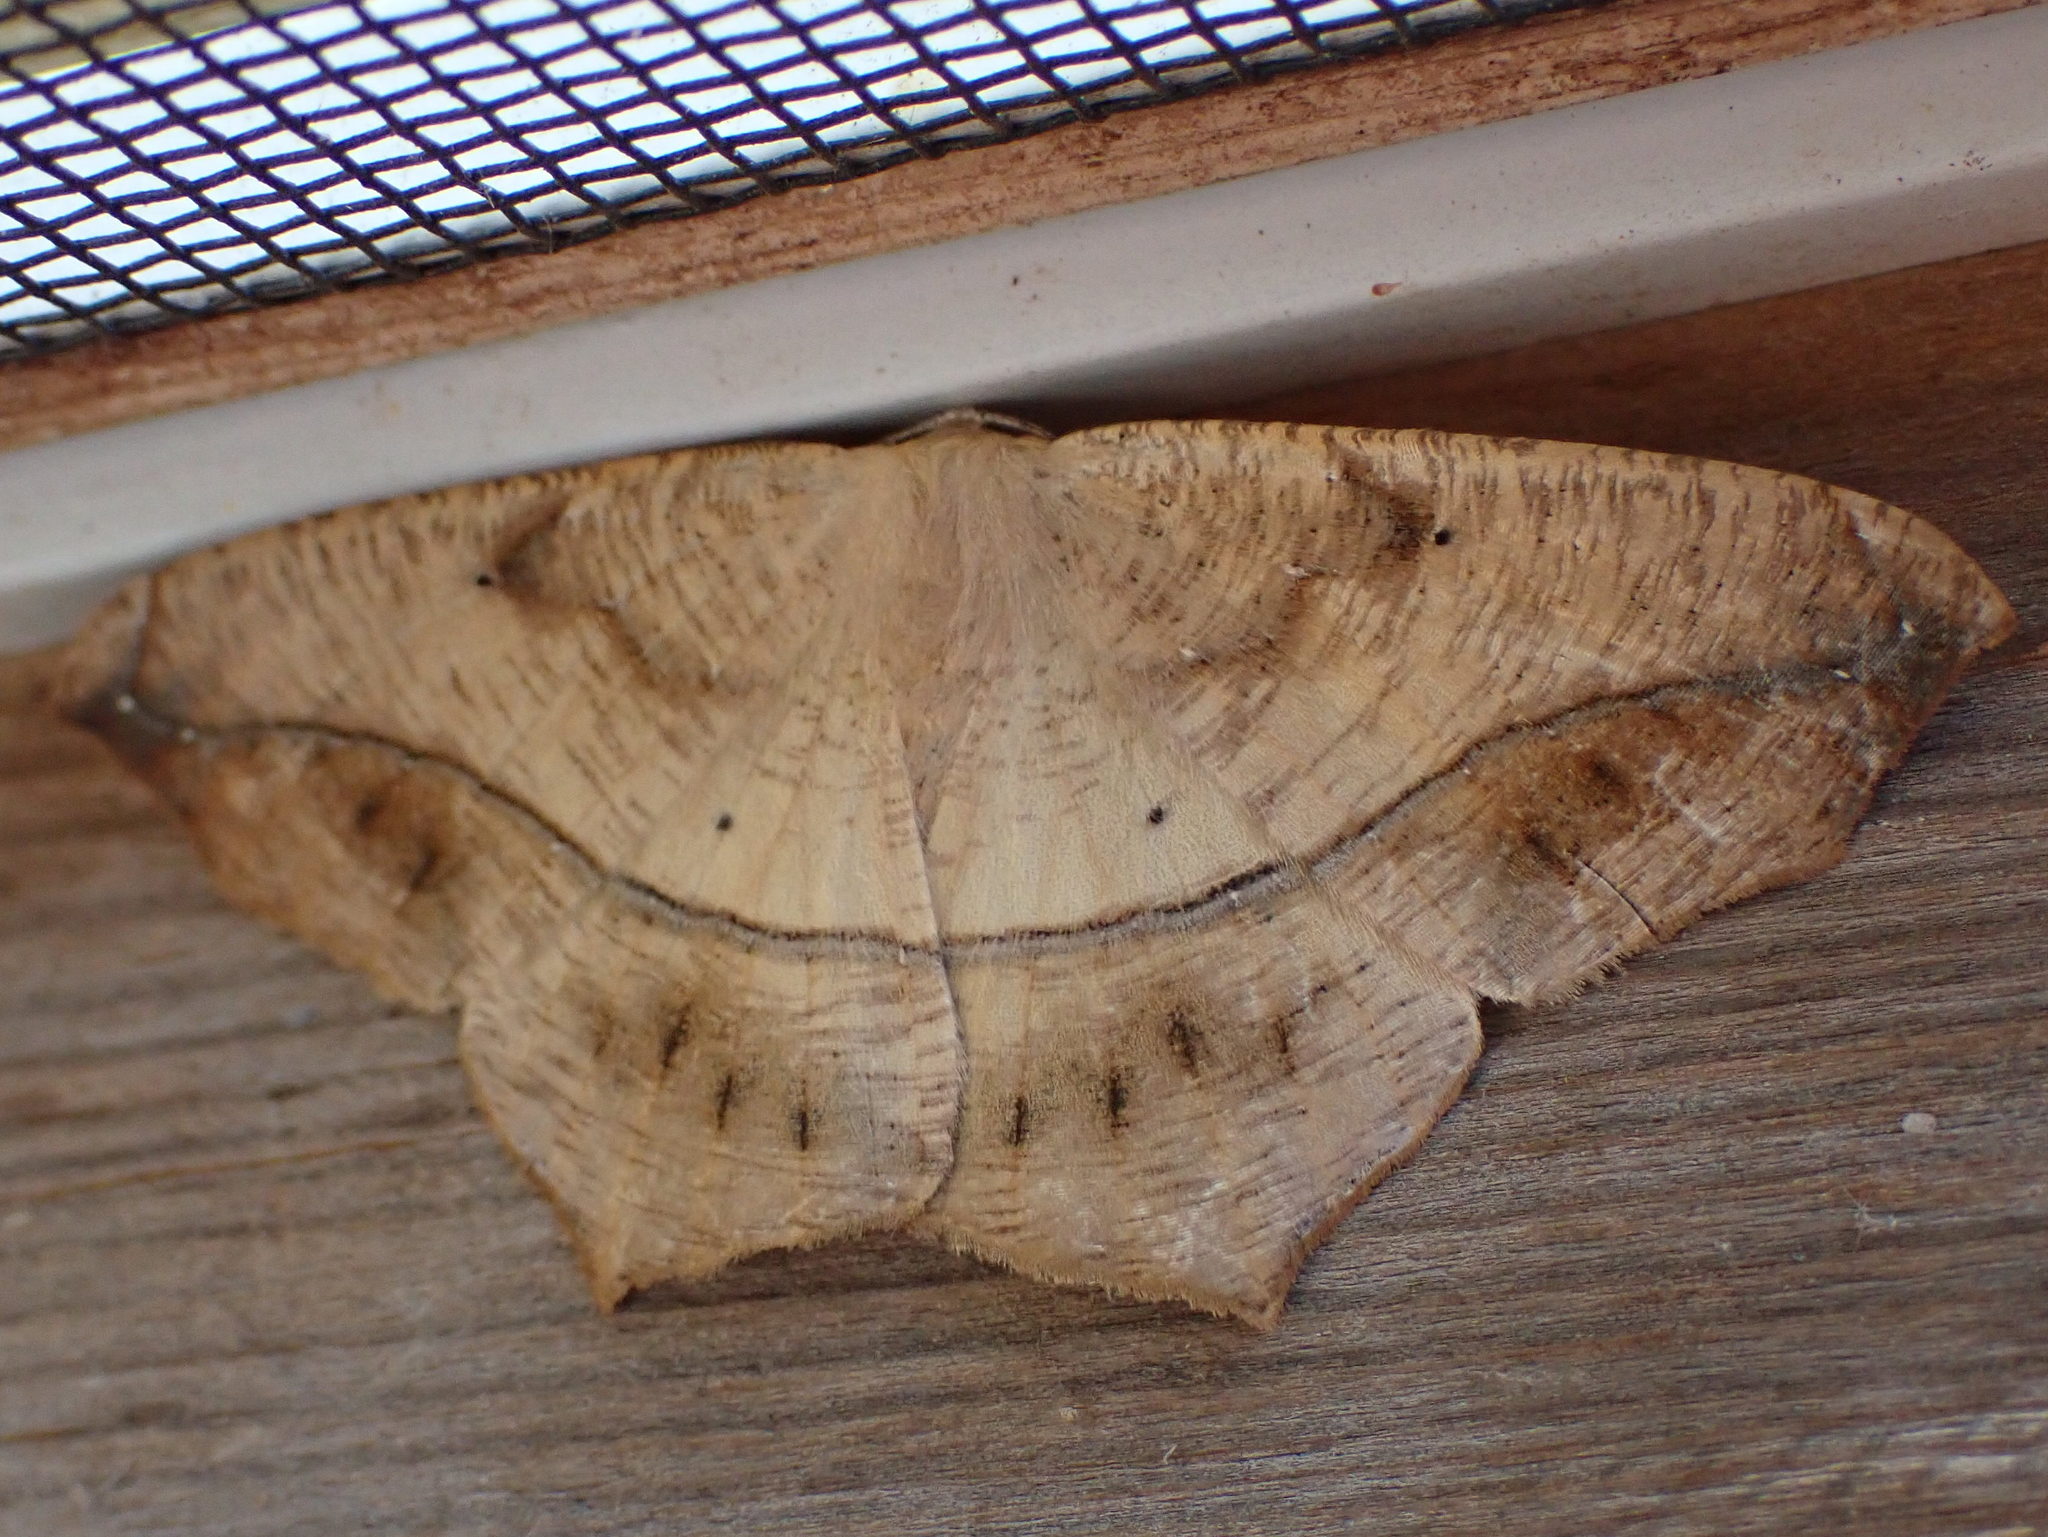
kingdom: Animalia
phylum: Arthropoda
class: Insecta
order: Lepidoptera
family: Geometridae
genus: Prochoerodes
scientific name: Prochoerodes lineola
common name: Large maple spanworm
